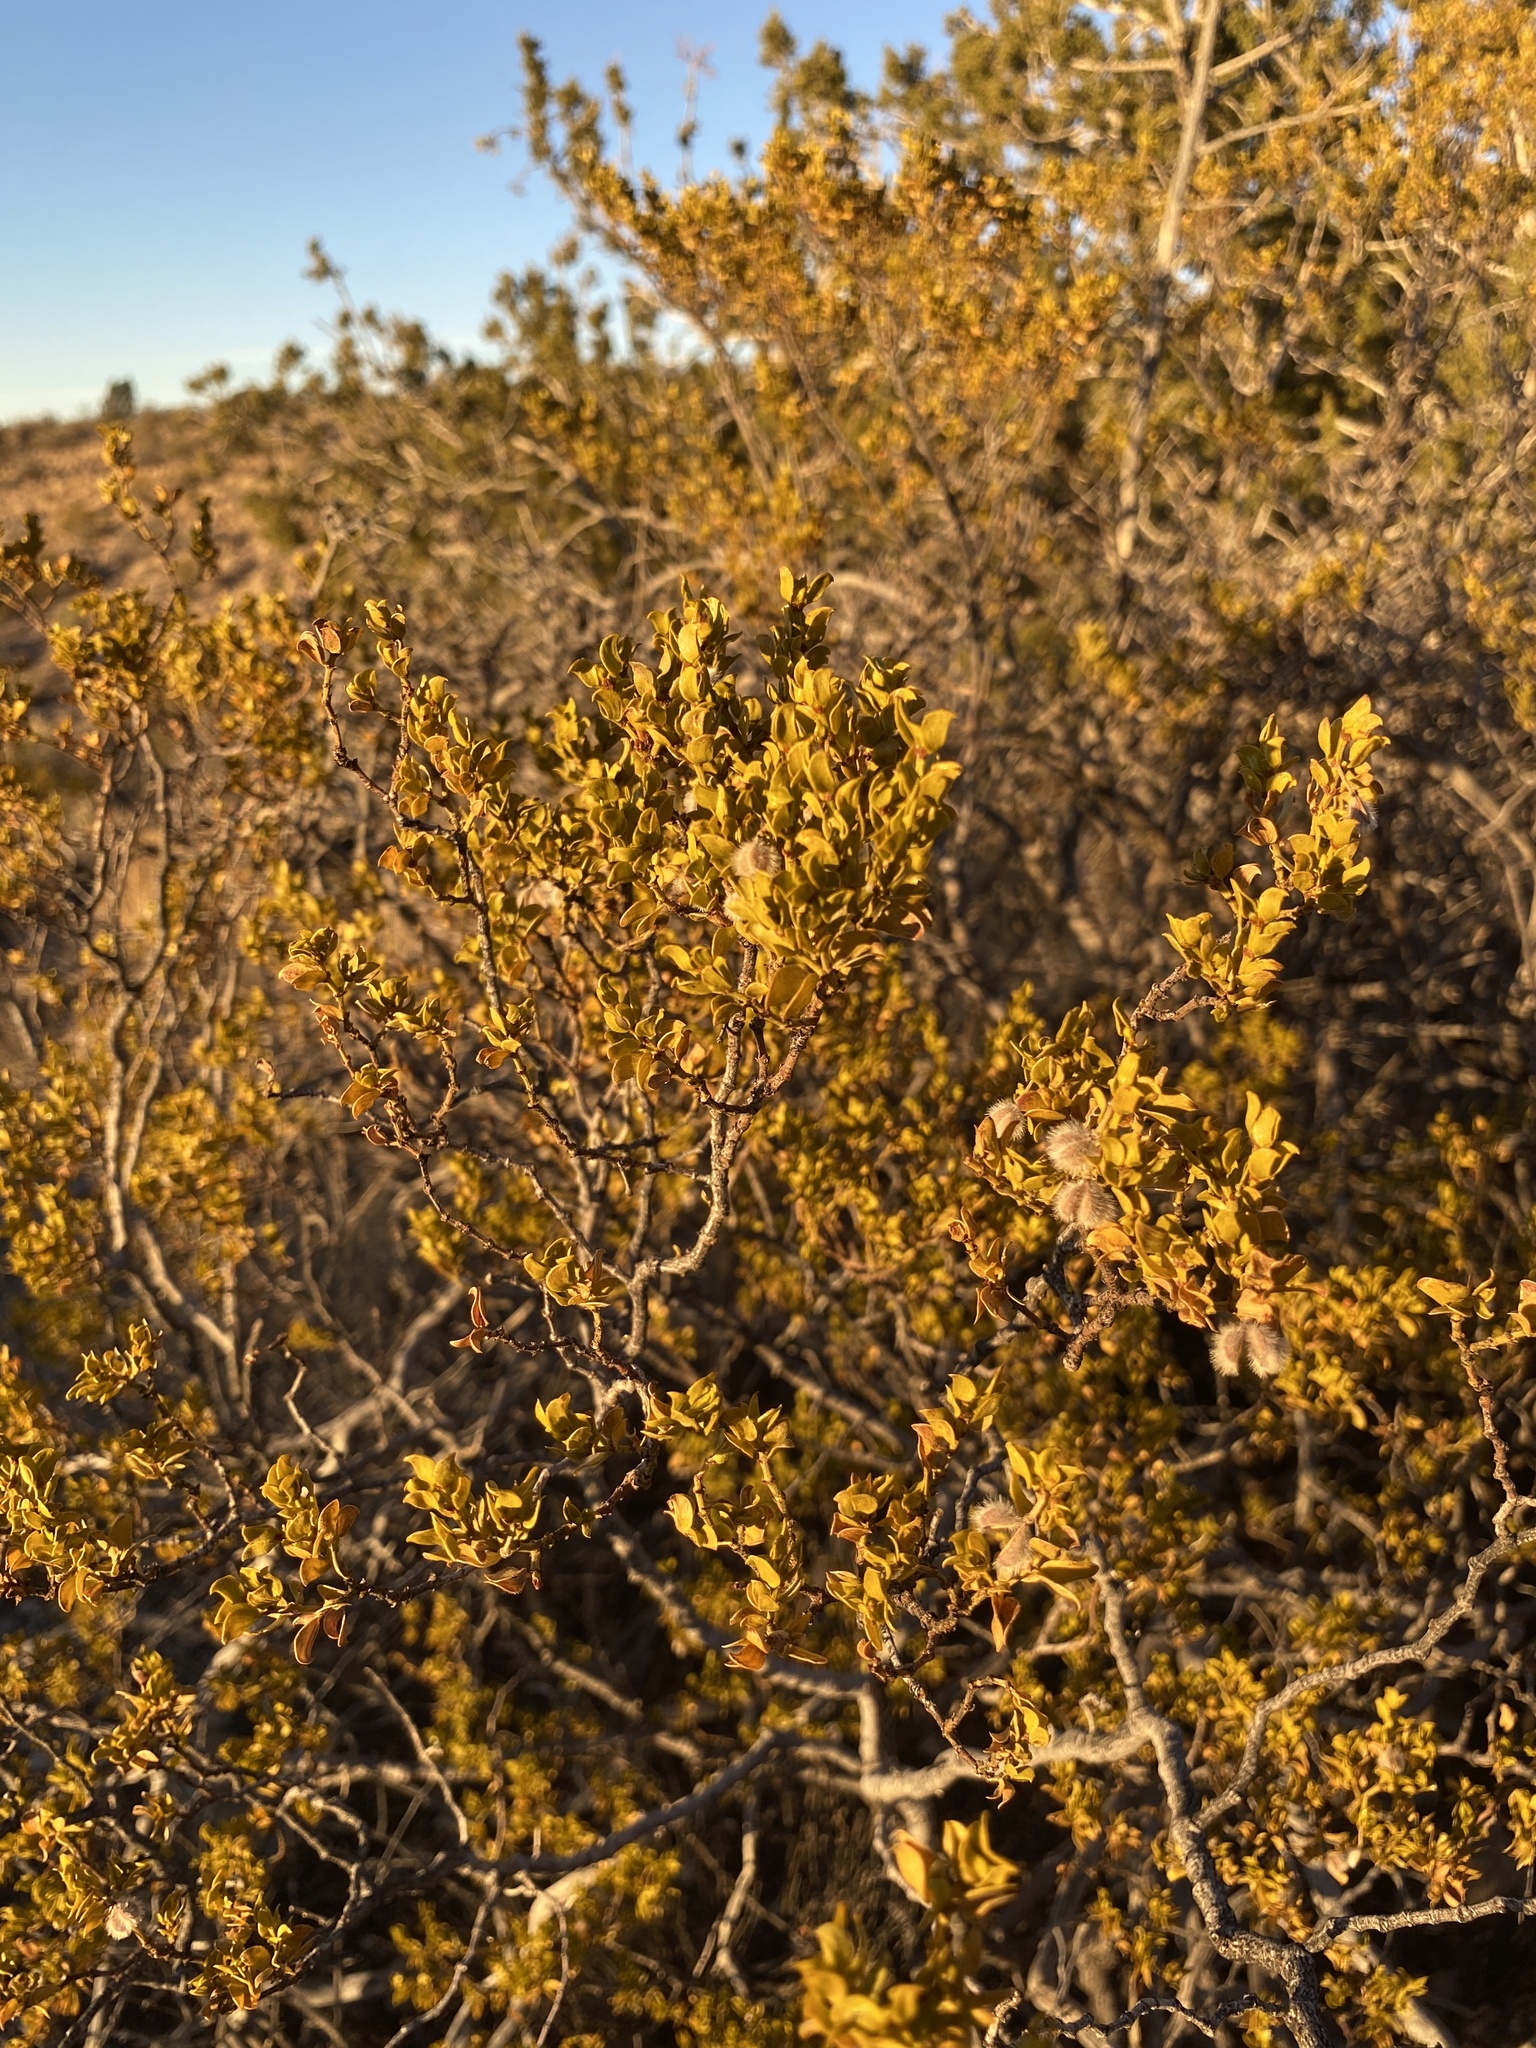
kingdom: Plantae
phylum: Tracheophyta
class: Magnoliopsida
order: Zygophyllales
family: Zygophyllaceae
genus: Larrea
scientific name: Larrea tridentata
